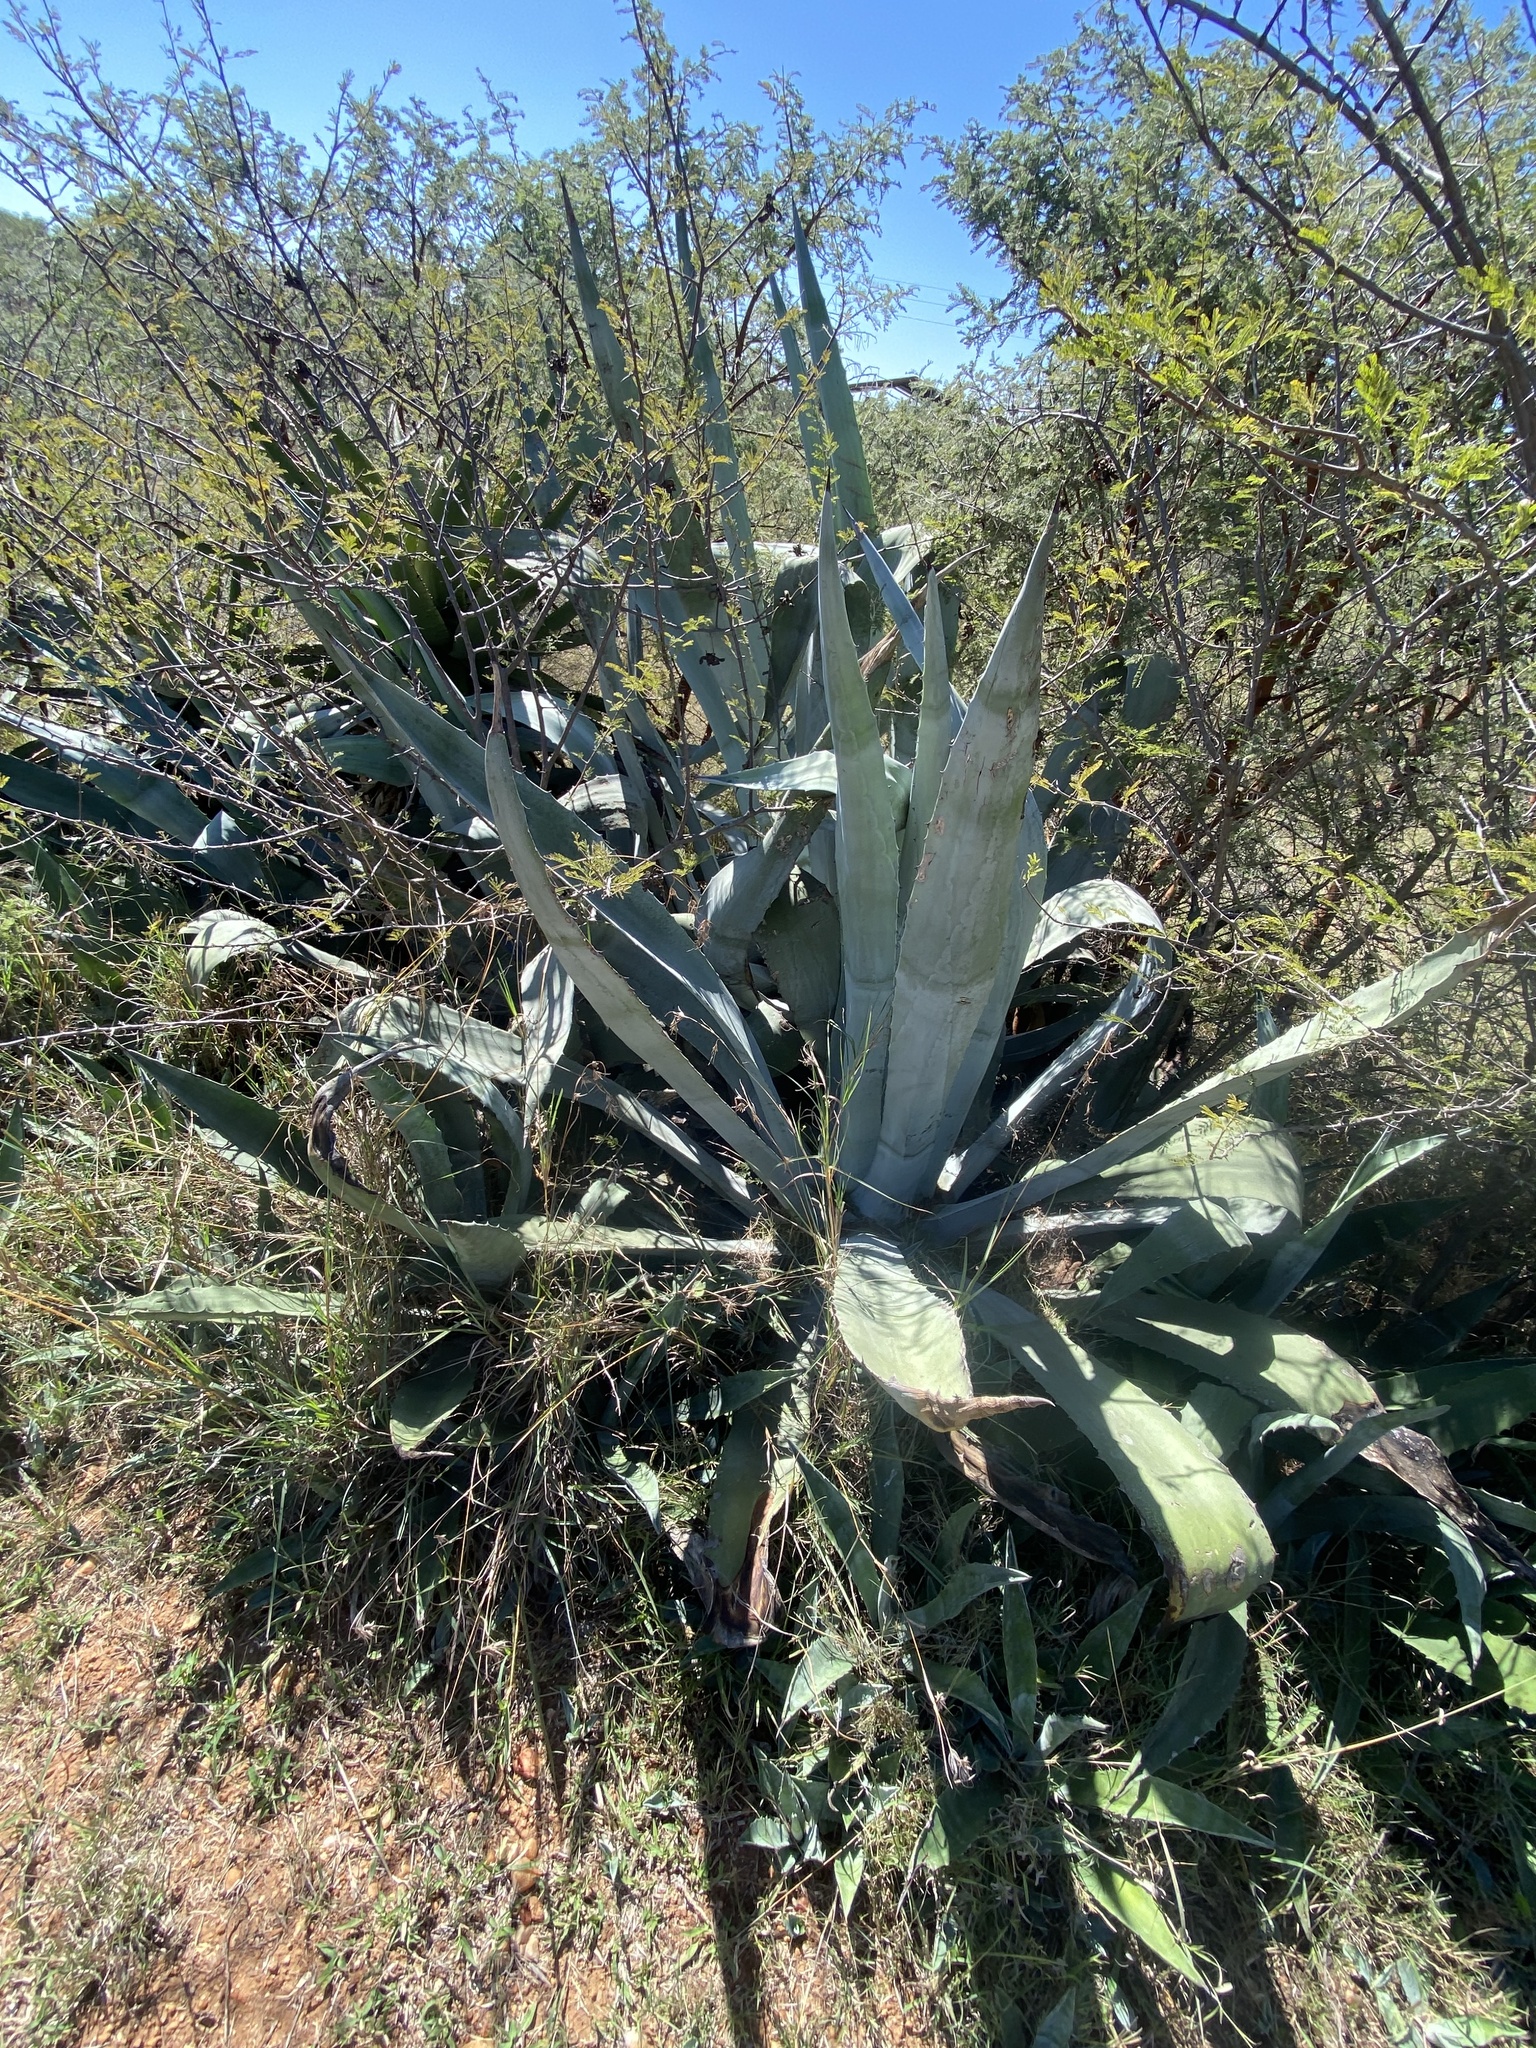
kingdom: Plantae
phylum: Tracheophyta
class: Liliopsida
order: Asparagales
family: Asparagaceae
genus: Agave
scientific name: Agave americana
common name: Centuryplant
